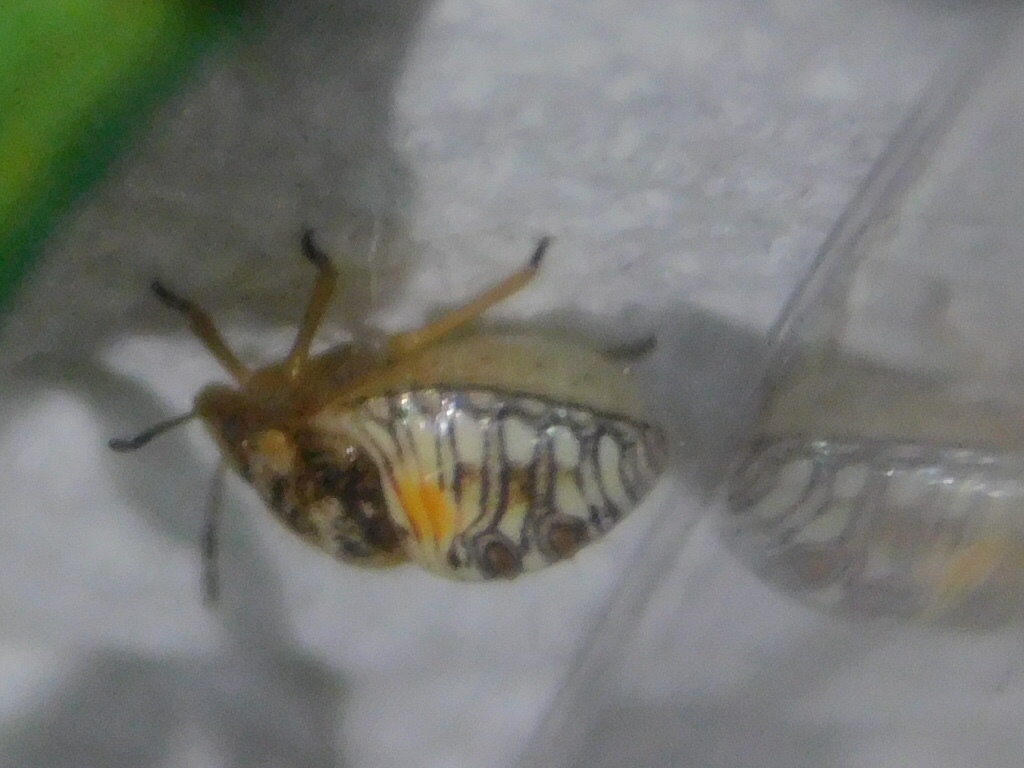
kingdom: Animalia
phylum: Arthropoda
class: Insecta
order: Hemiptera
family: Pentatomidae
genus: Thyanta
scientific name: Thyanta perditor
